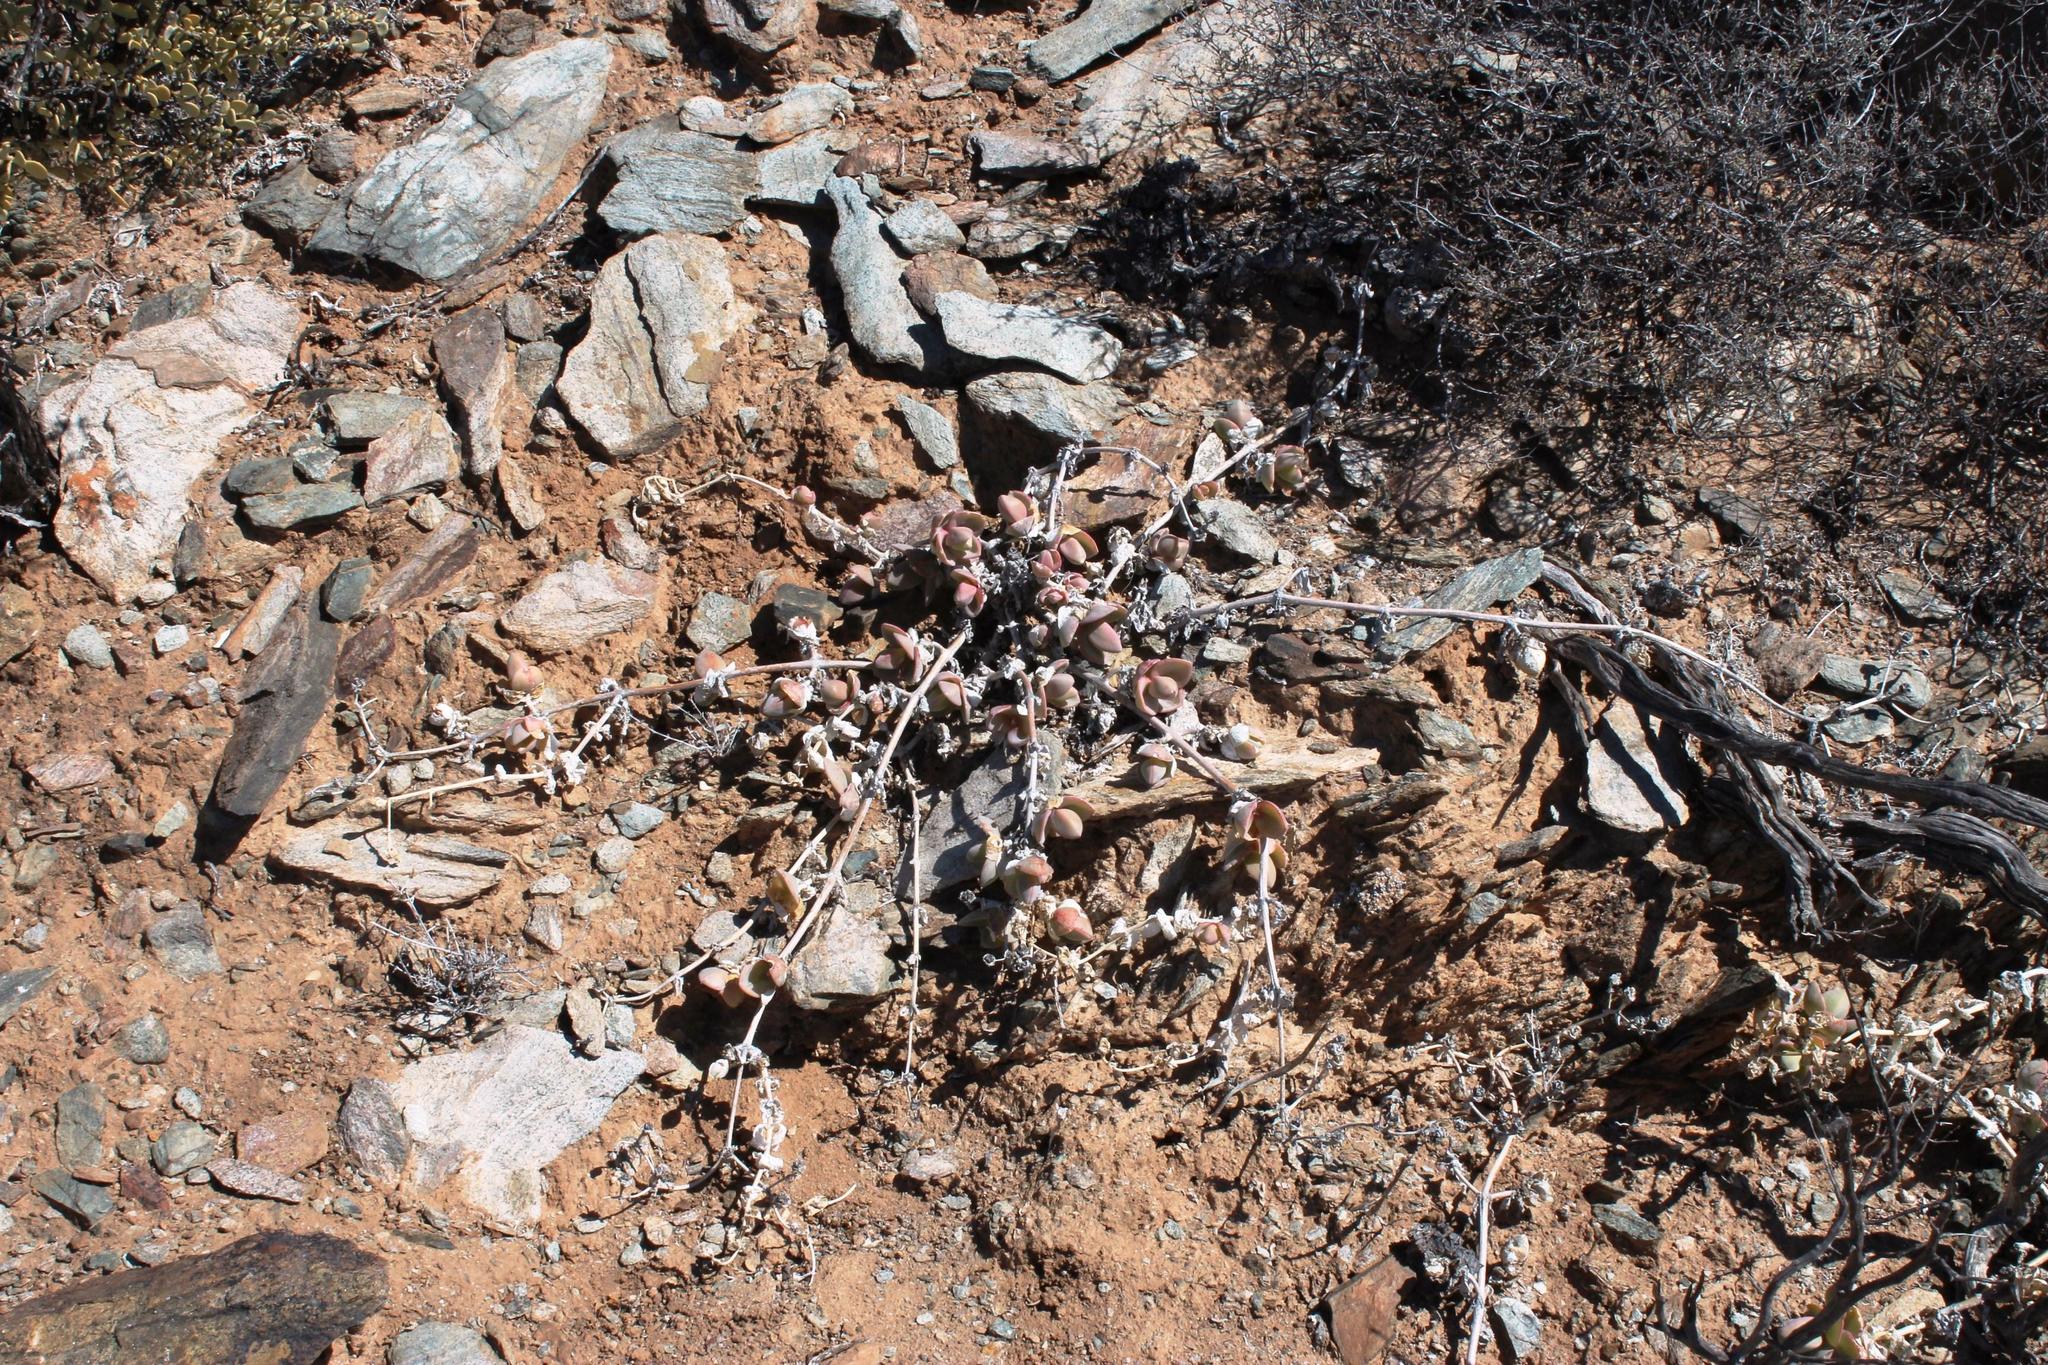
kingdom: Plantae
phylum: Tracheophyta
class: Magnoliopsida
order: Caryophyllales
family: Aizoaceae
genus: Mesembryanthemum
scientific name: Mesembryanthemum sladenianum
